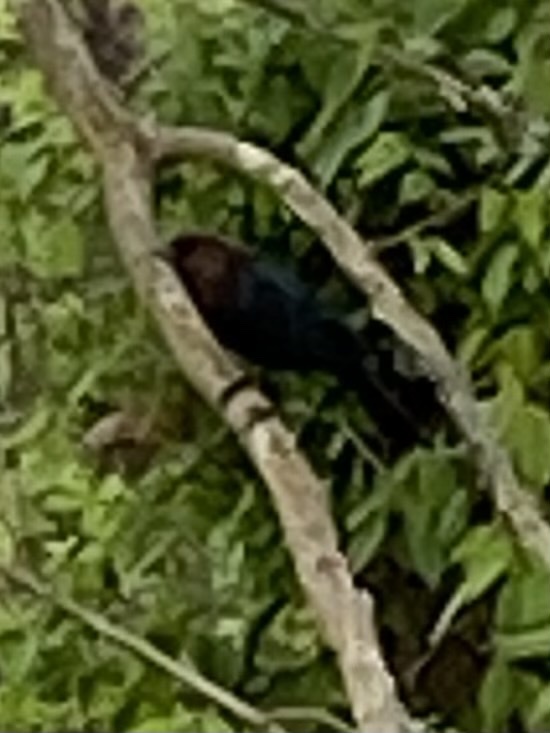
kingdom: Animalia
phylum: Chordata
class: Aves
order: Passeriformes
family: Icteridae
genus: Molothrus
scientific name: Molothrus ater
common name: Brown-headed cowbird
